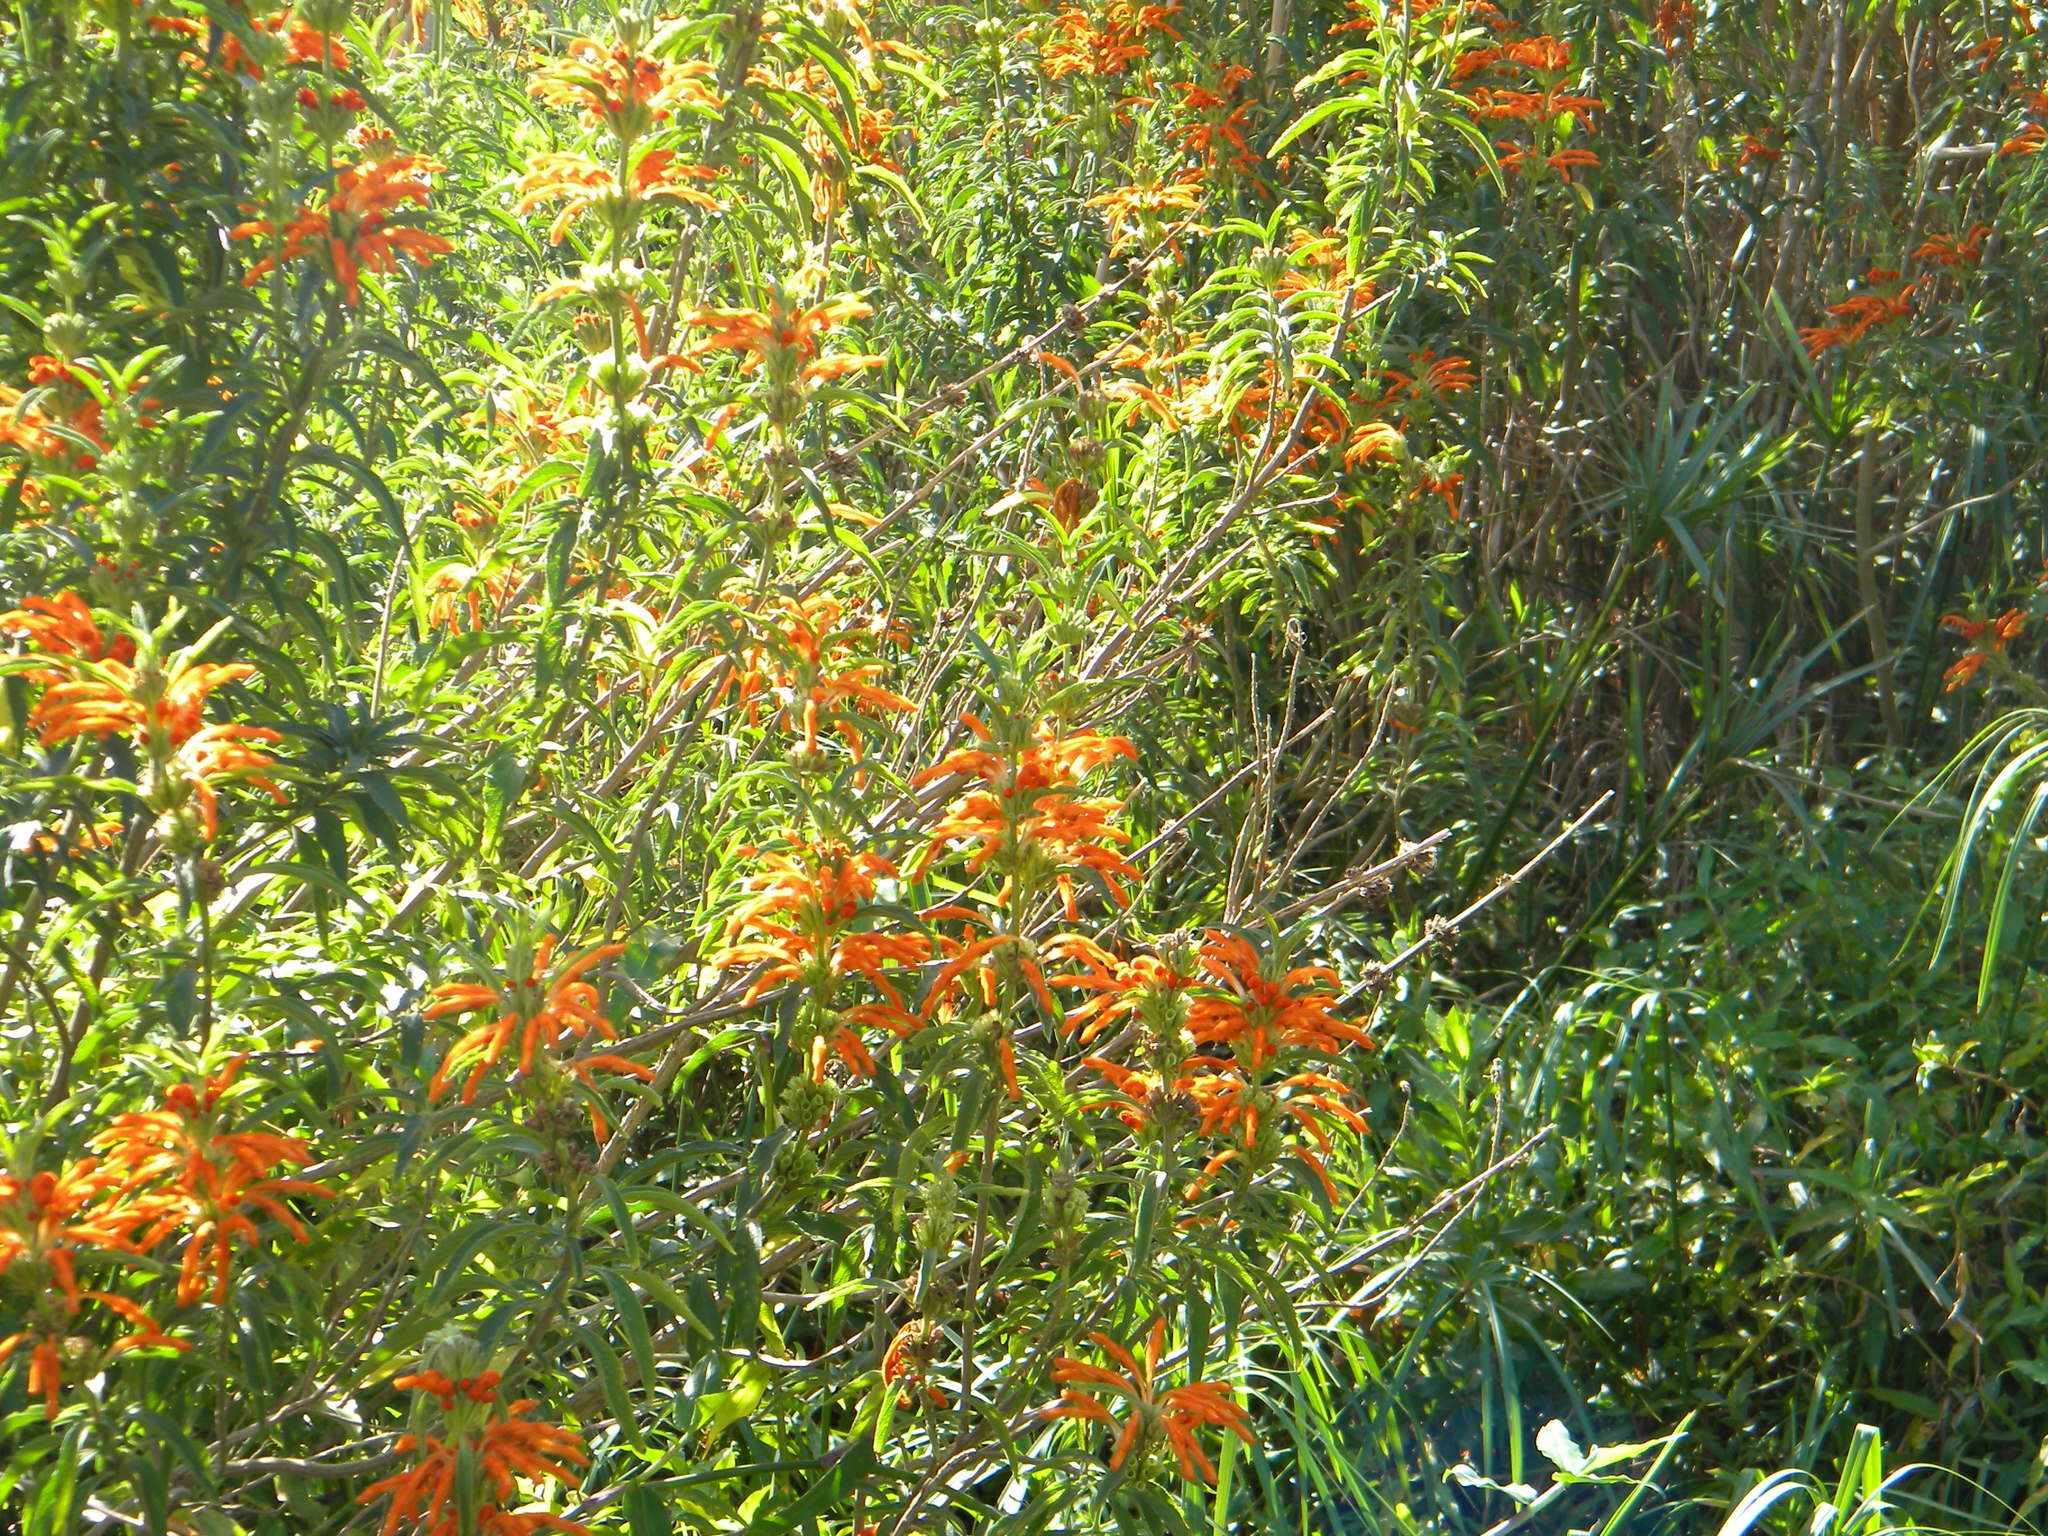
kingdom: Plantae
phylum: Tracheophyta
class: Magnoliopsida
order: Lamiales
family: Lamiaceae
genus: Leonotis
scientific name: Leonotis leonurus
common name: Lion's ear
